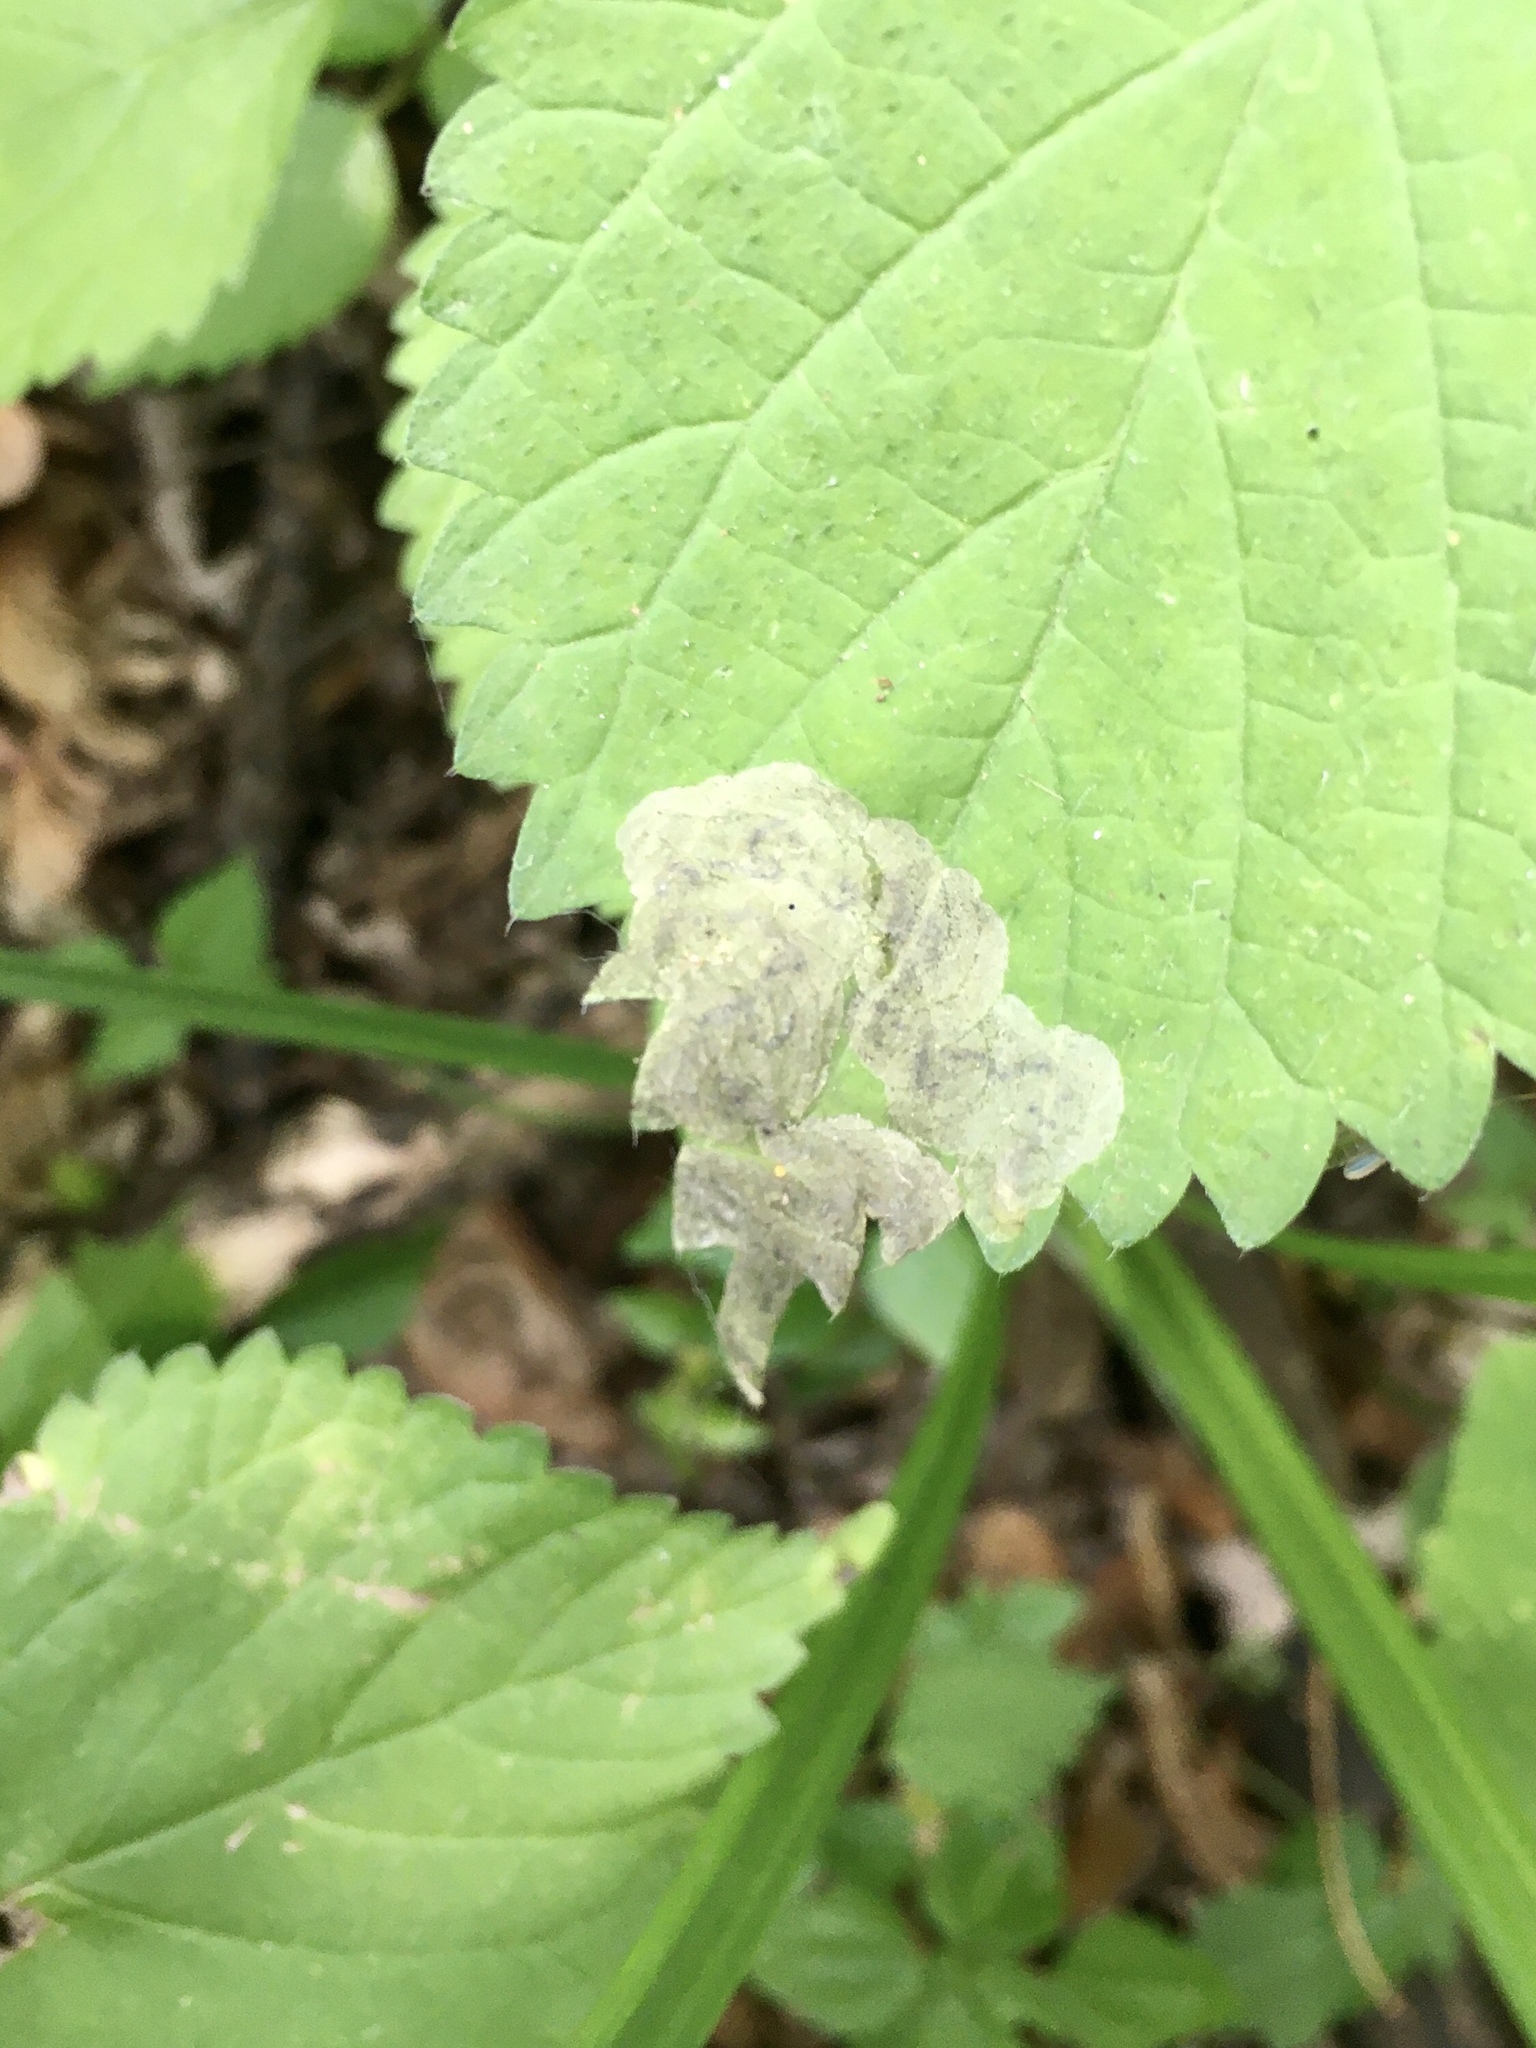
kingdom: Animalia
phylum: Arthropoda
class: Insecta
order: Diptera
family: Agromyzidae
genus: Agromyza
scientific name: Agromyza diversa
